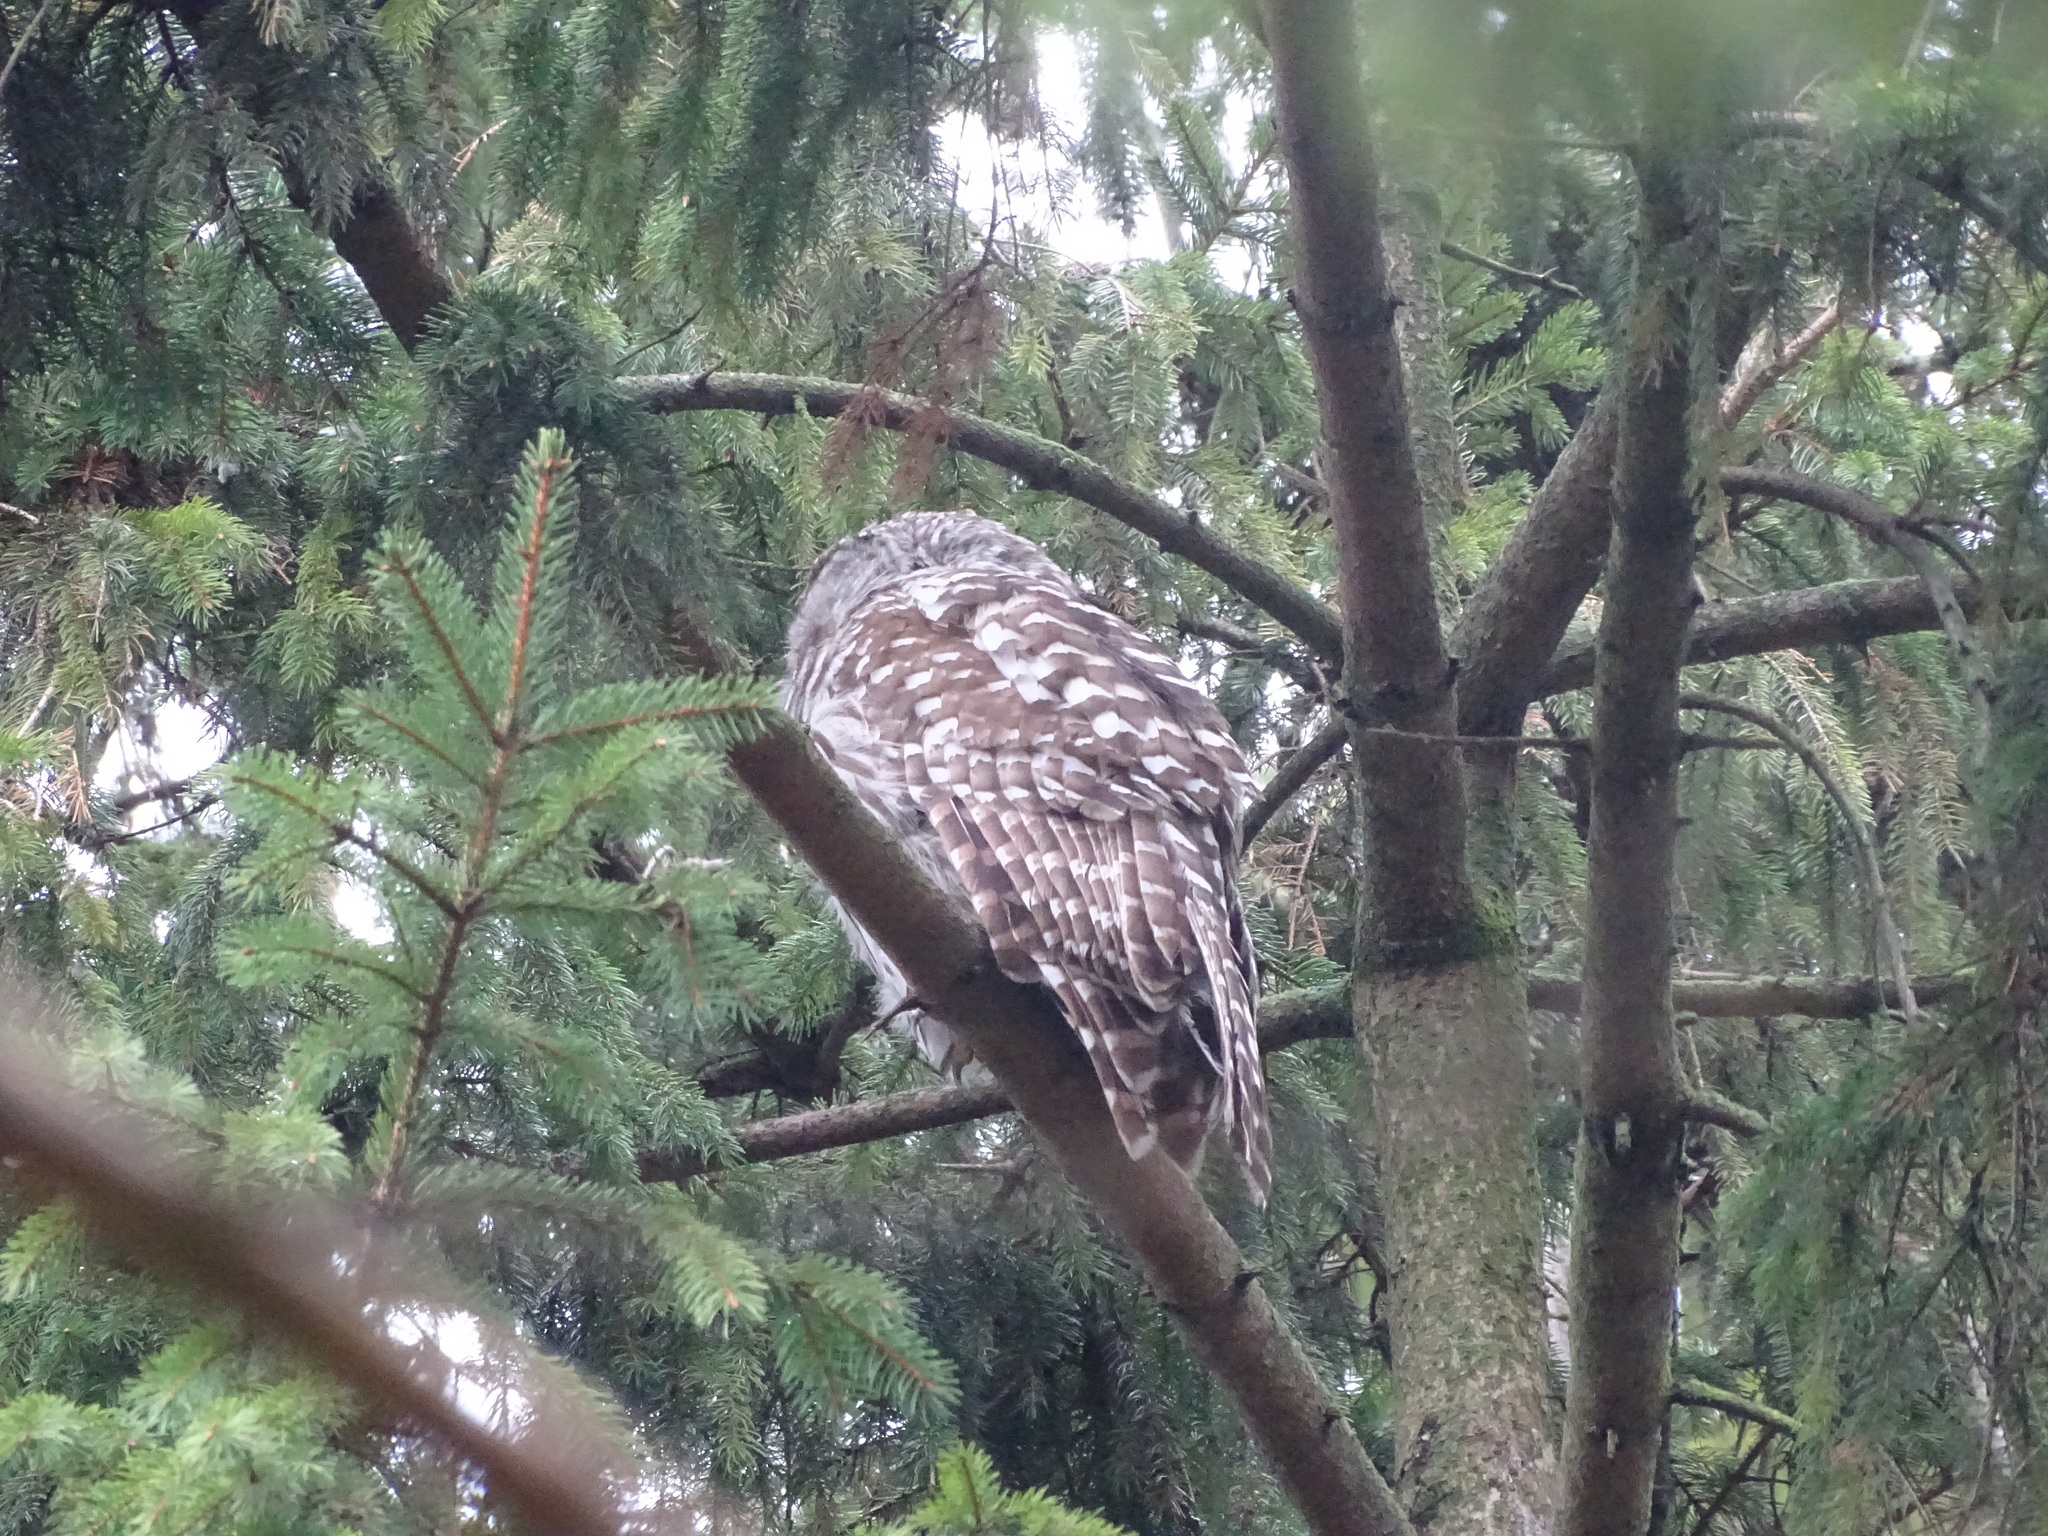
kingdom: Animalia
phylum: Chordata
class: Aves
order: Strigiformes
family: Strigidae
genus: Strix
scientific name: Strix varia
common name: Barred owl
